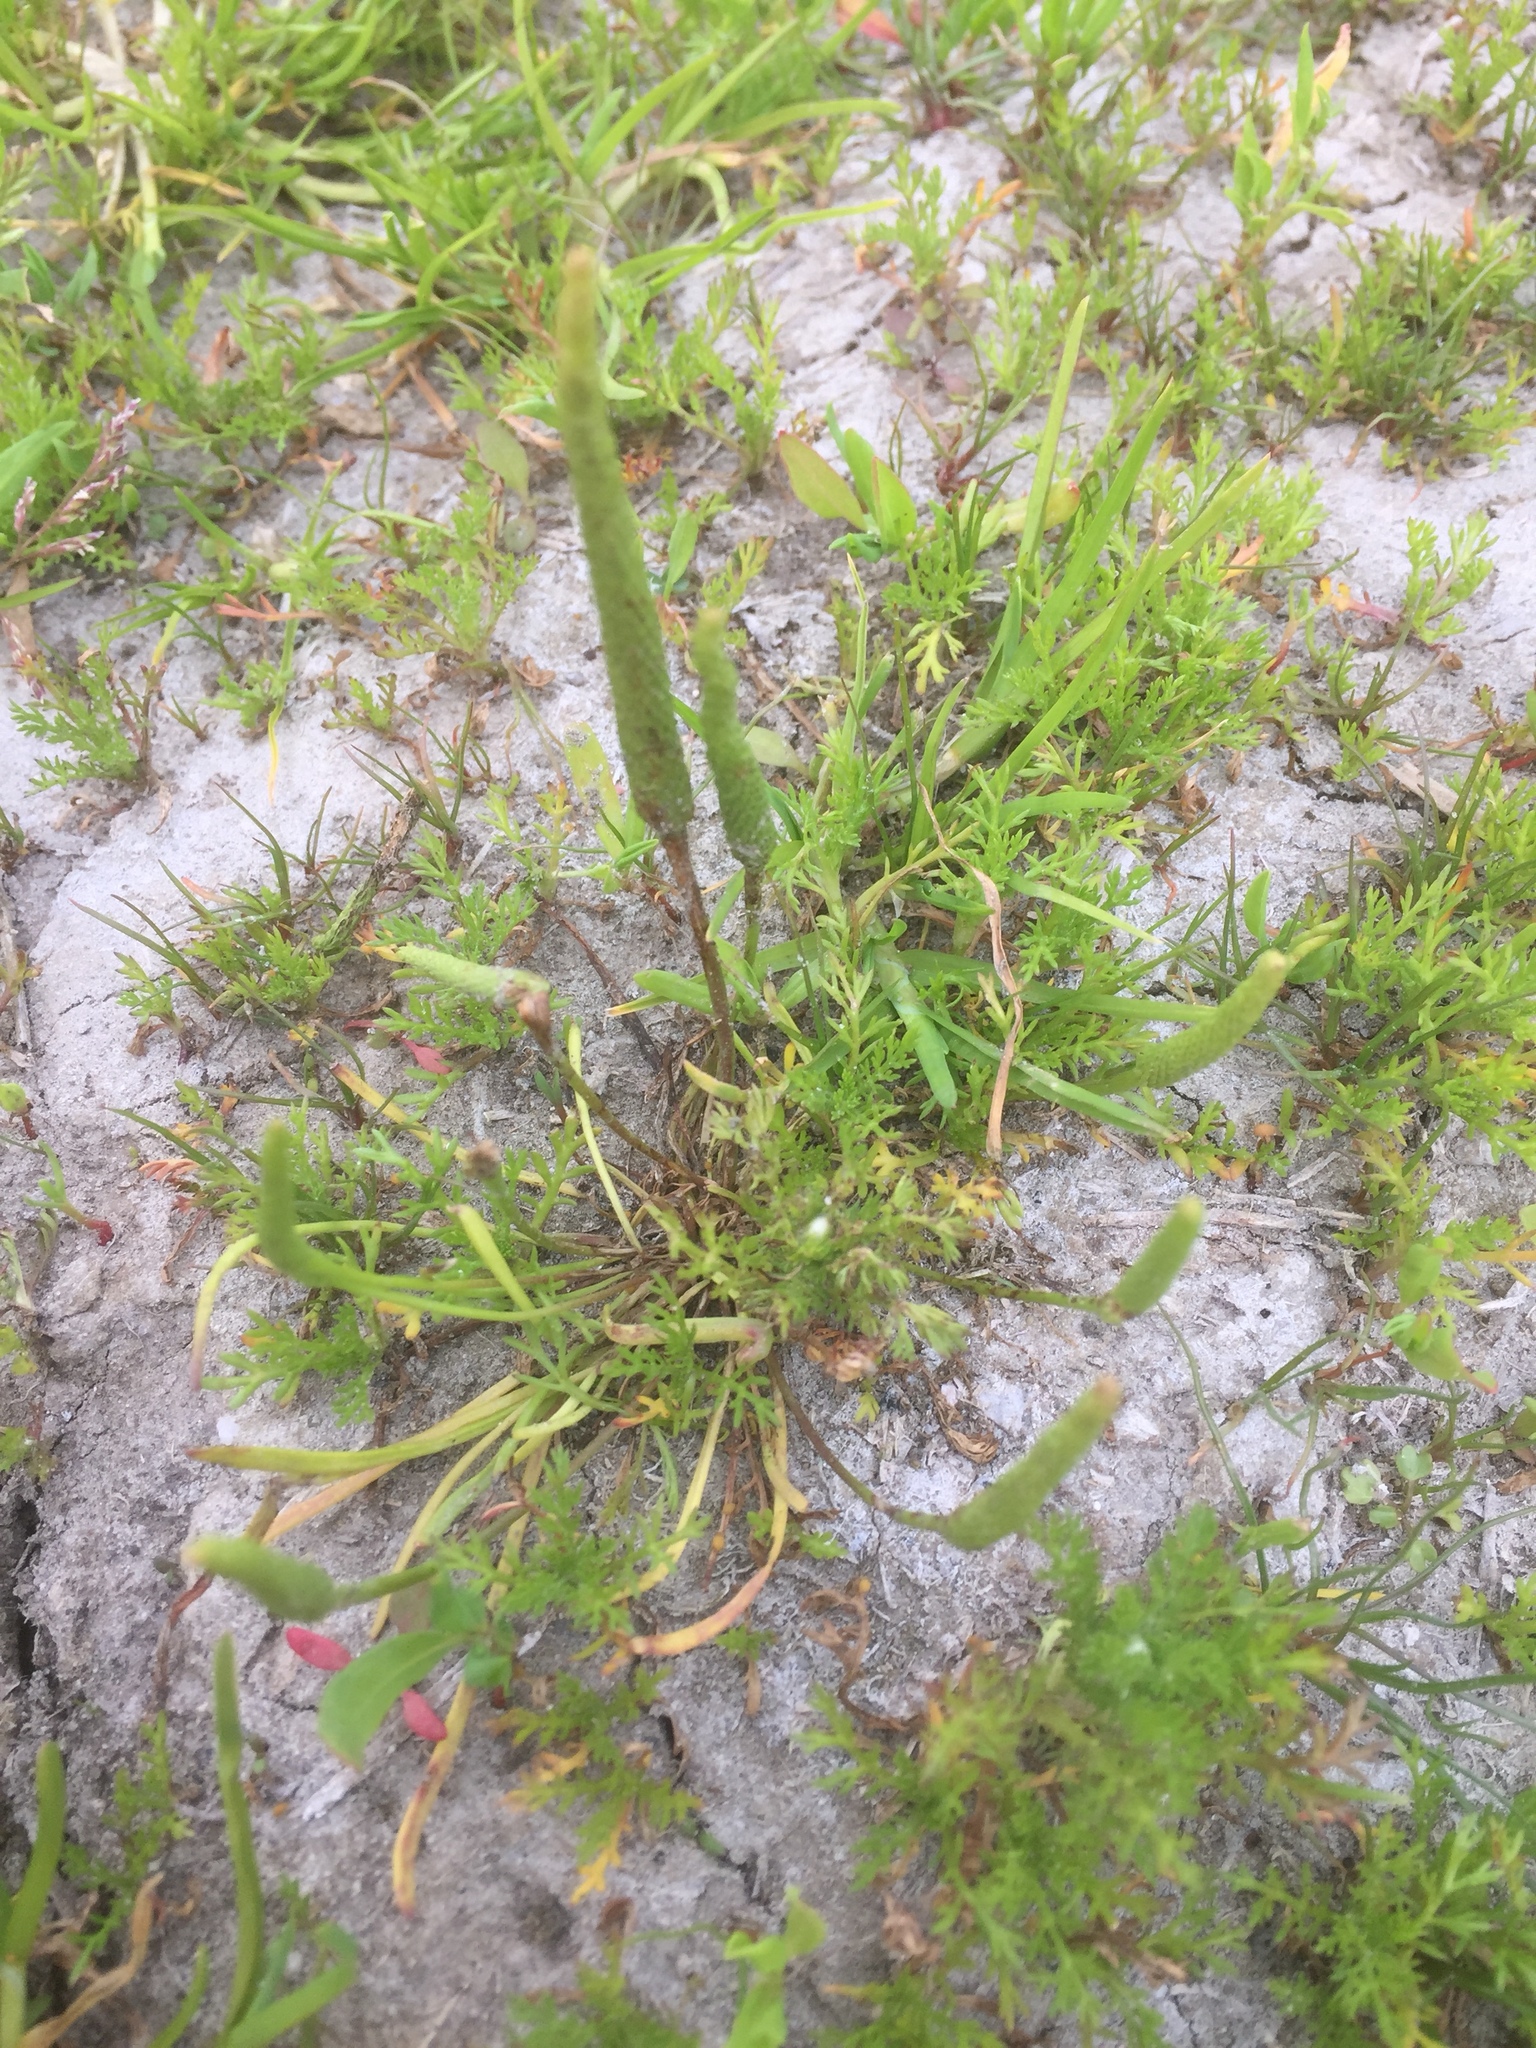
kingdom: Plantae
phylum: Tracheophyta
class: Magnoliopsida
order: Ranunculales
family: Ranunculaceae
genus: Myosurus
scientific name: Myosurus minimus
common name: Mousetail
